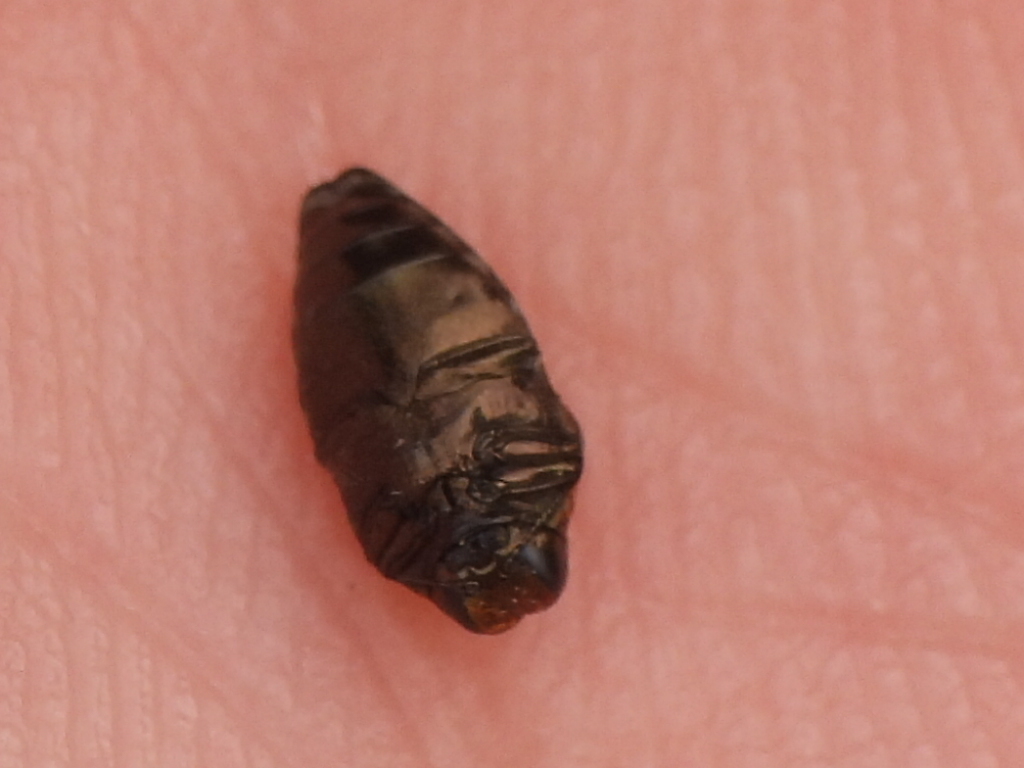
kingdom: Animalia
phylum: Arthropoda
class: Insecta
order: Coleoptera
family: Buprestidae
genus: Brachys
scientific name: Brachys ovatus
